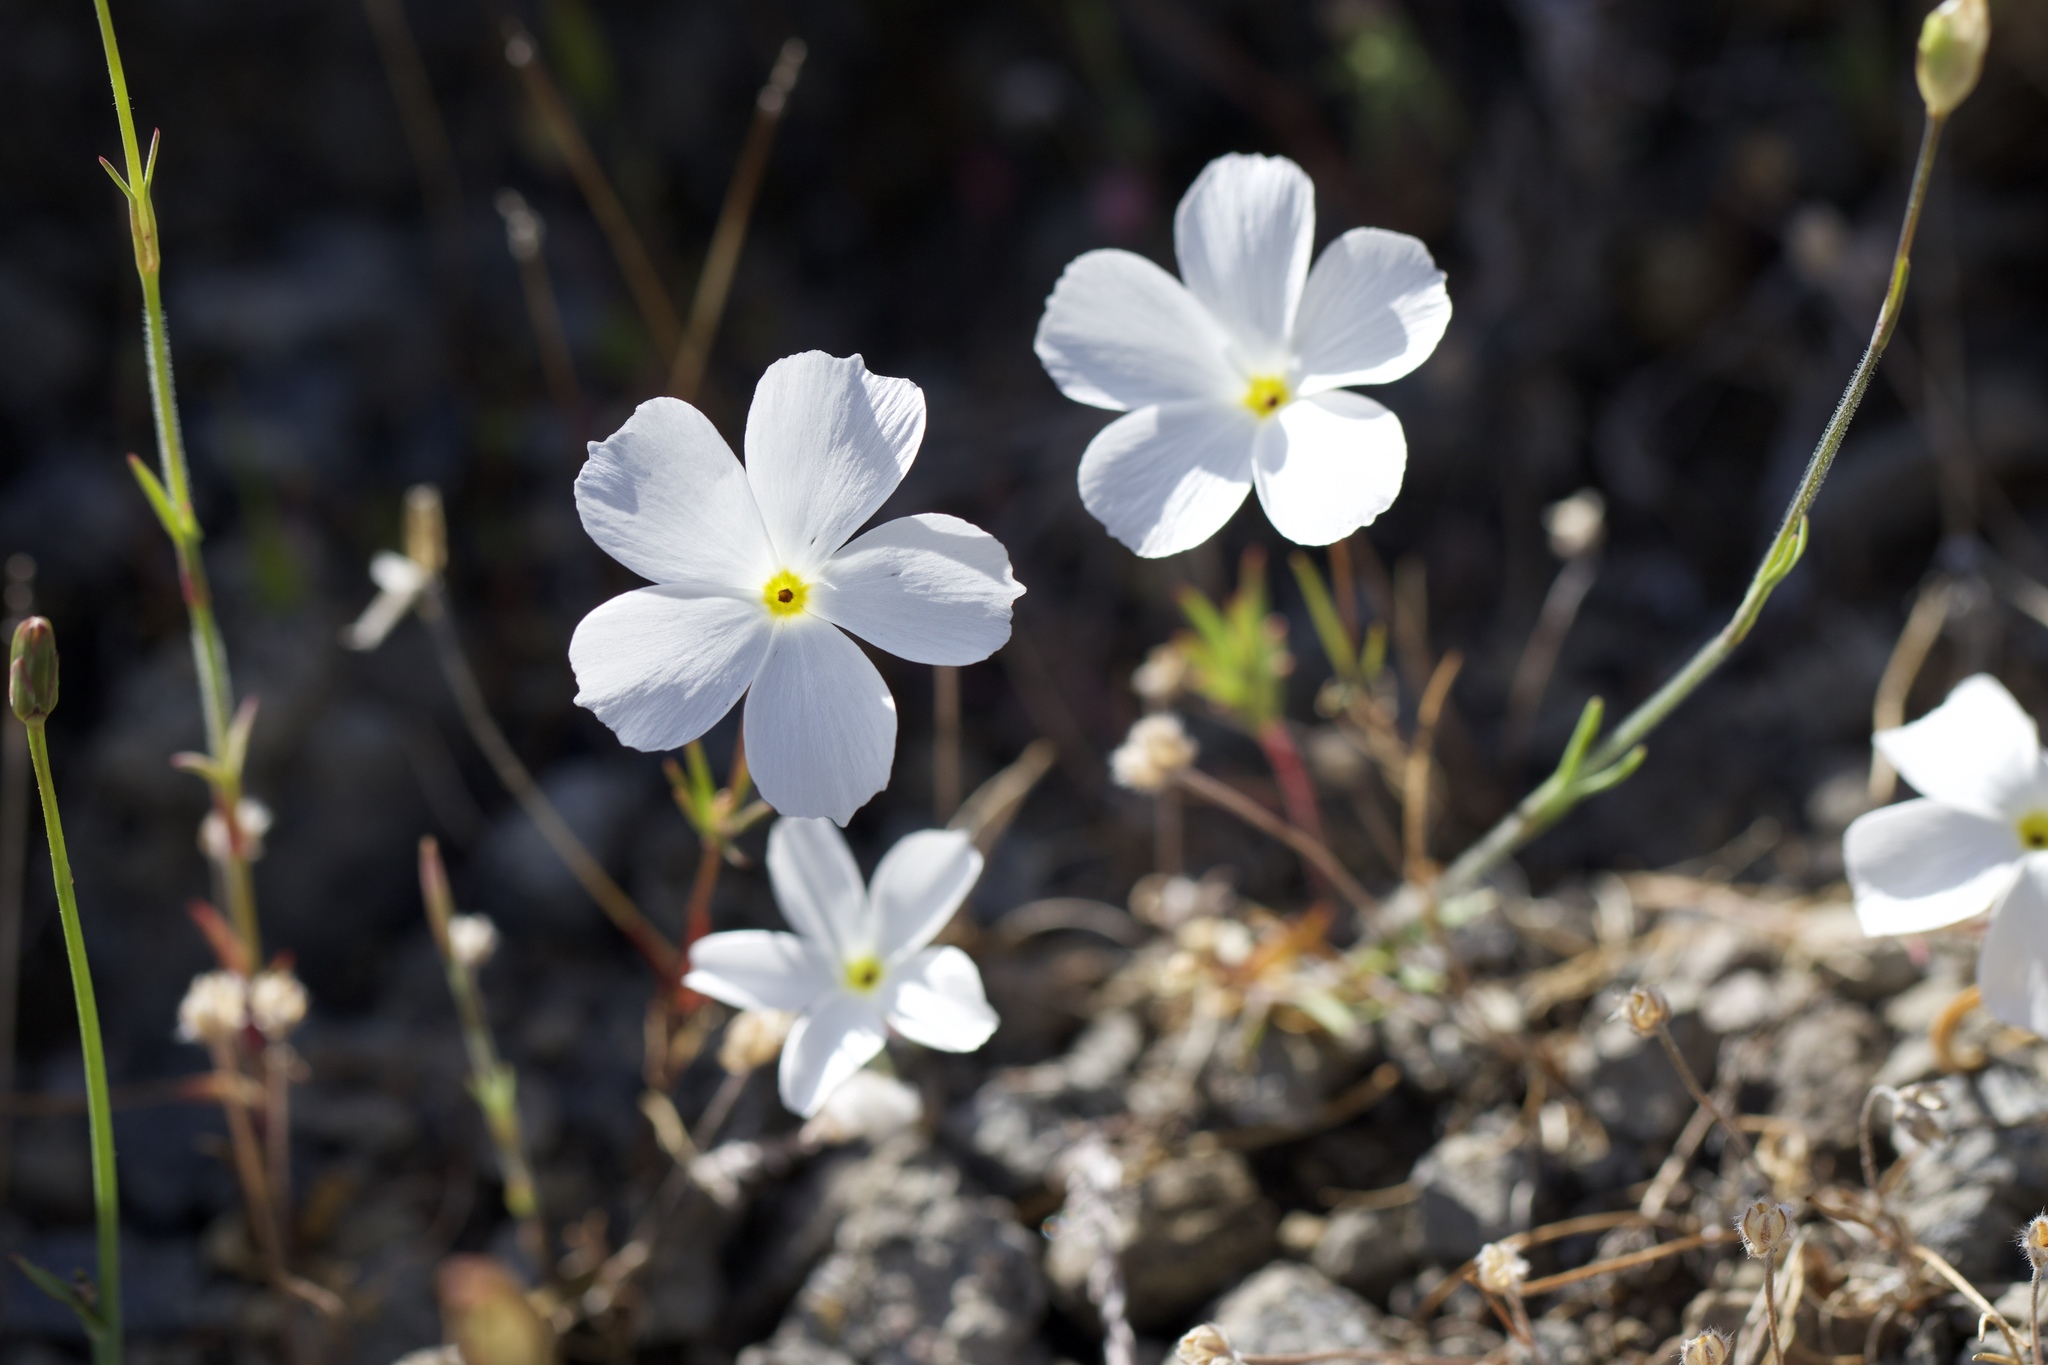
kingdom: Plantae
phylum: Tracheophyta
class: Magnoliopsida
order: Ericales
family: Polemoniaceae
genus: Linanthus
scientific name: Linanthus dichotomus
